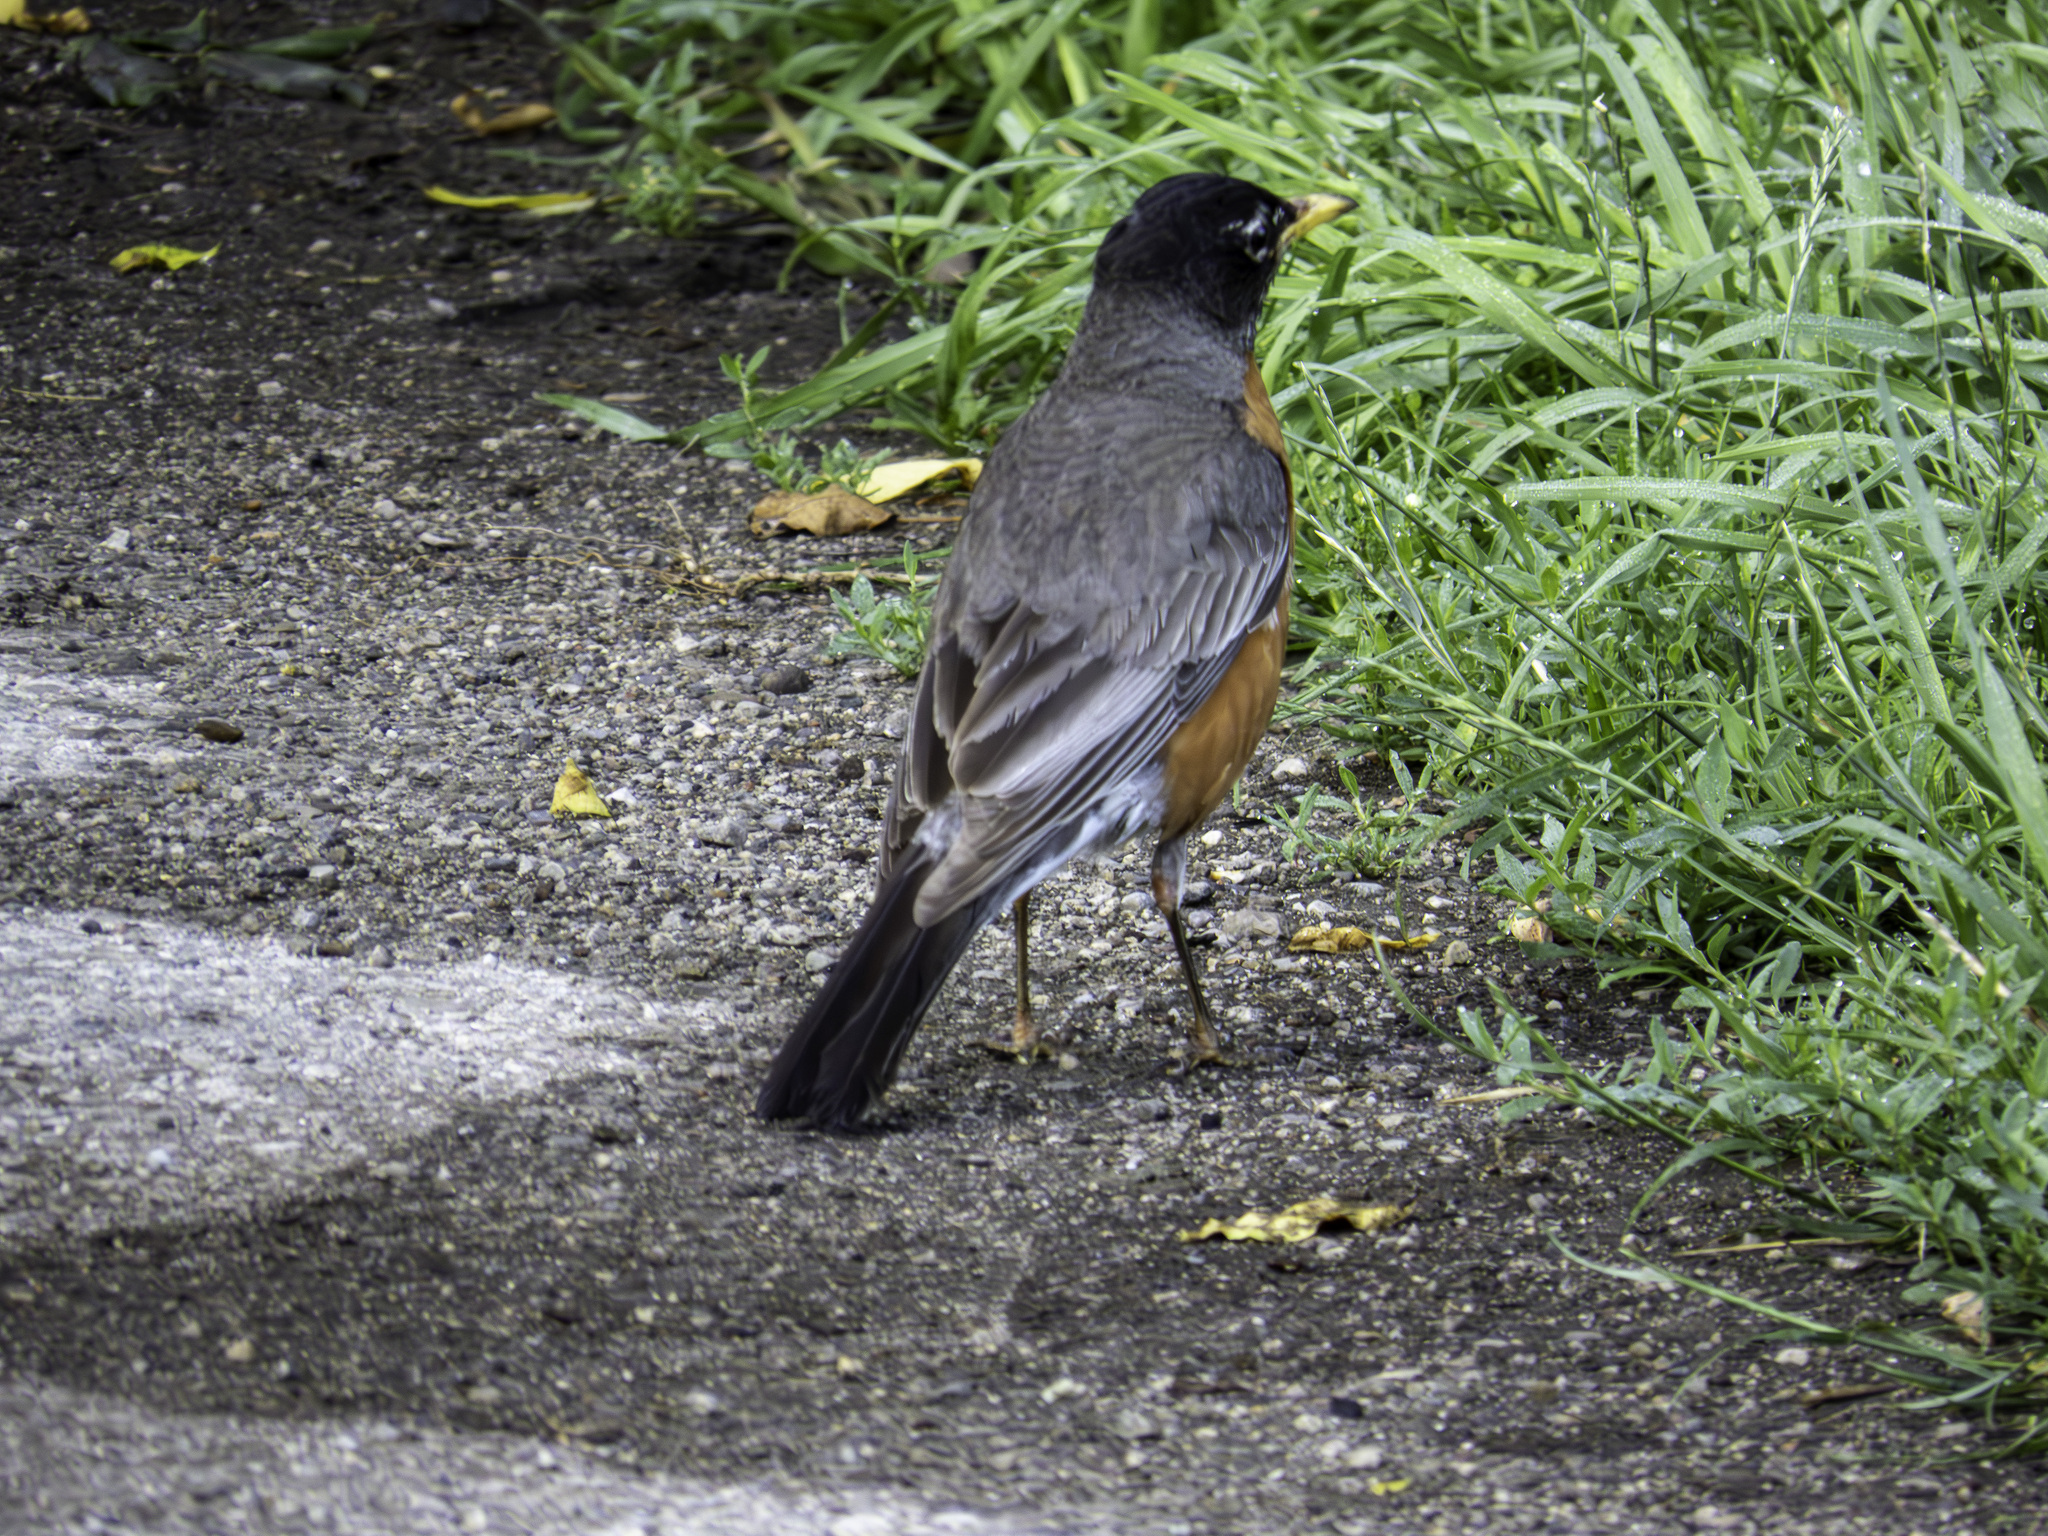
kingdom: Animalia
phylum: Chordata
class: Aves
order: Passeriformes
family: Turdidae
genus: Turdus
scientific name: Turdus migratorius
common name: American robin
